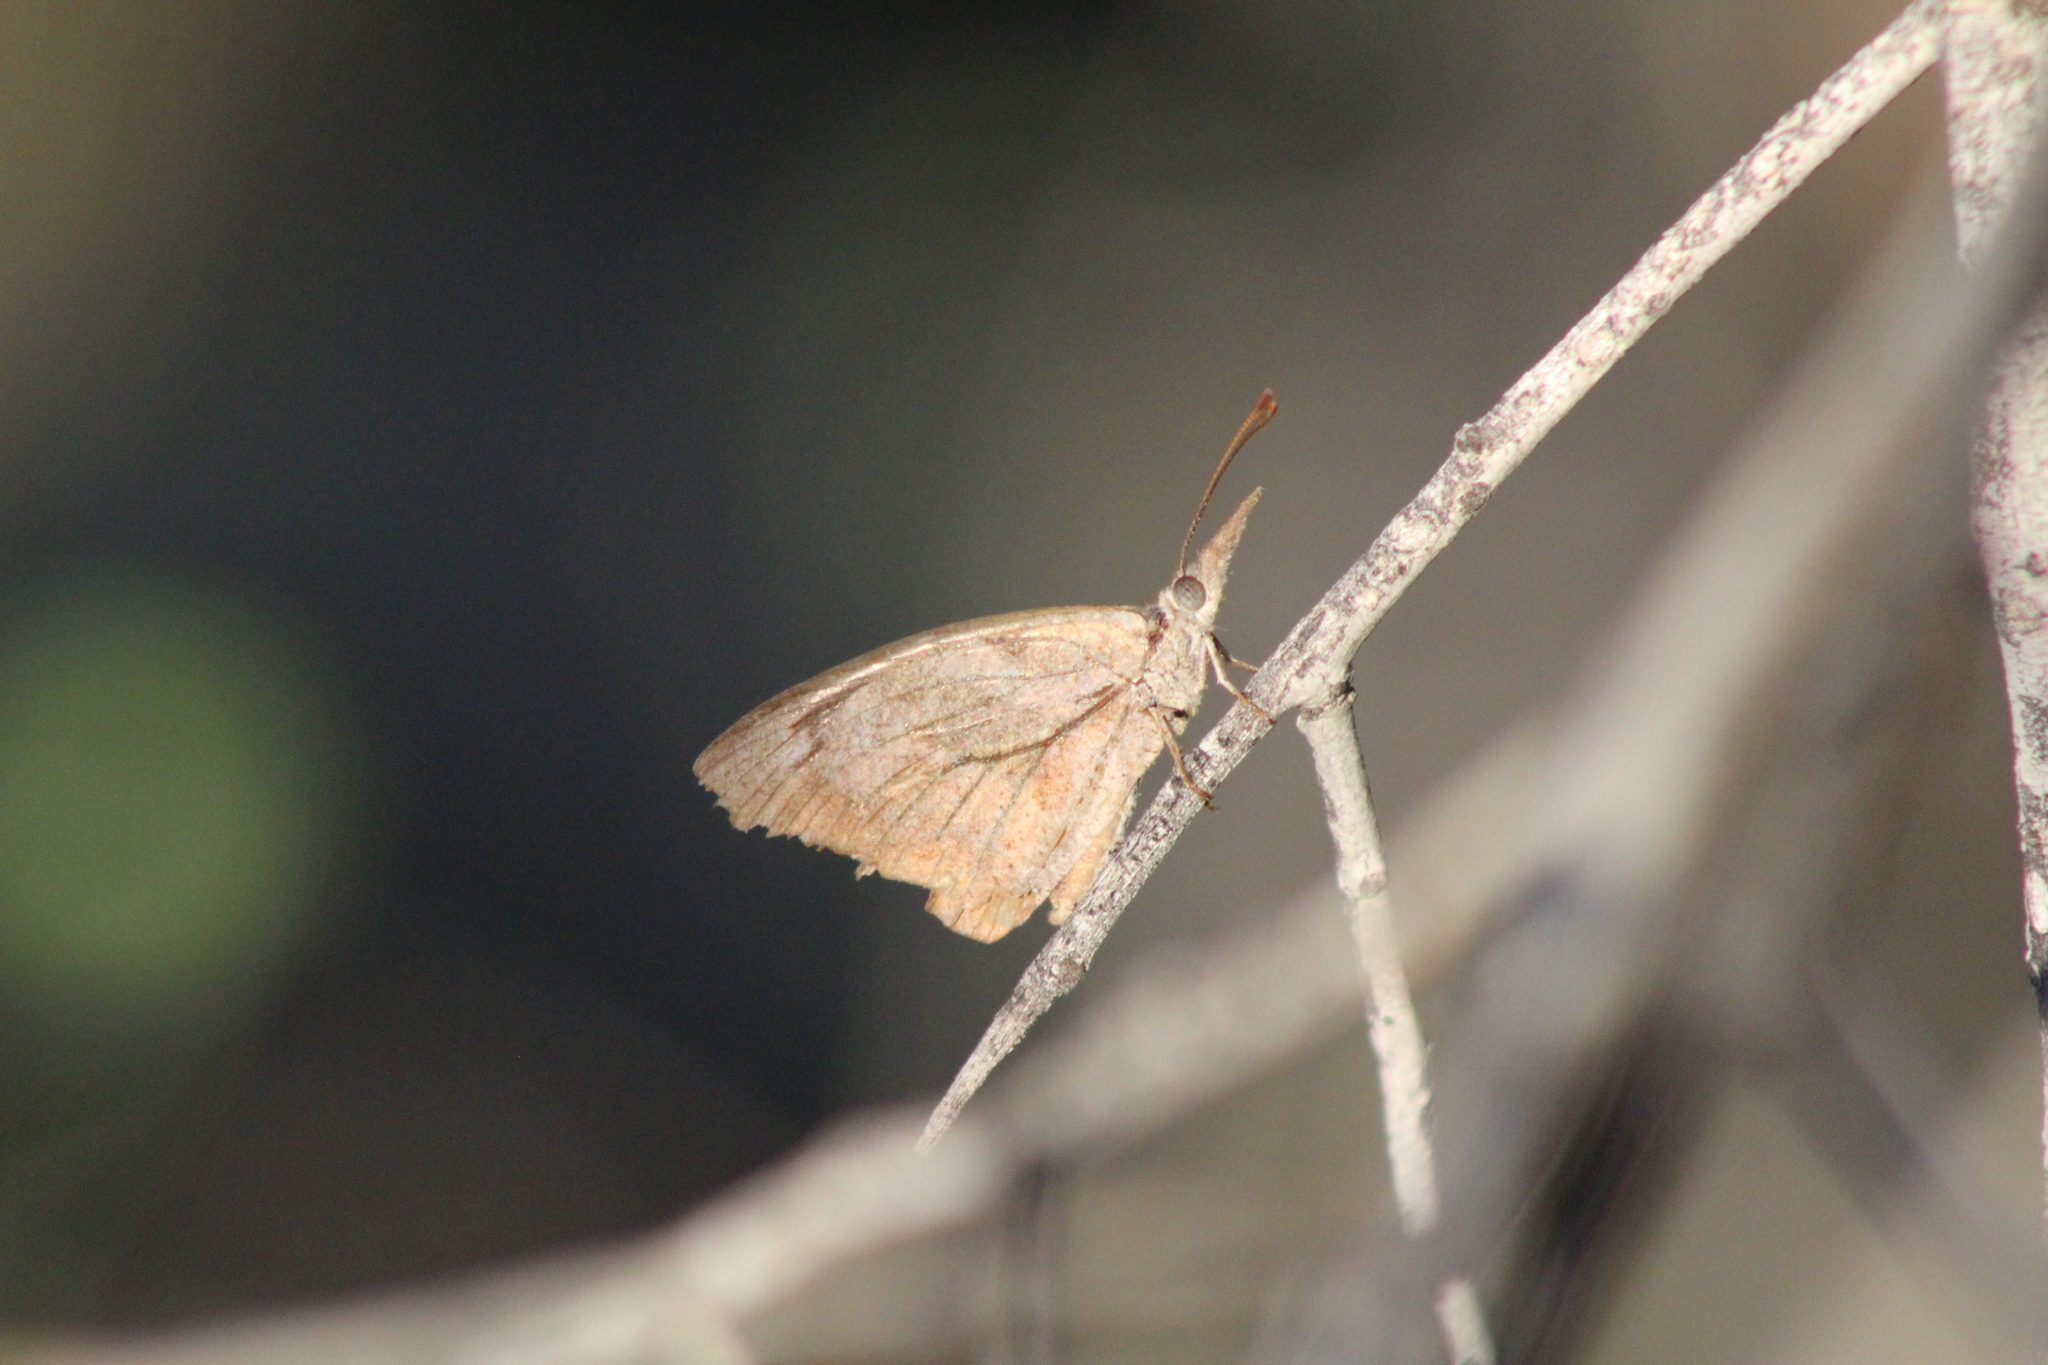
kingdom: Animalia
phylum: Arthropoda
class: Insecta
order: Lepidoptera
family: Nymphalidae
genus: Libytheana
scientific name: Libytheana carinenta
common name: American snout
